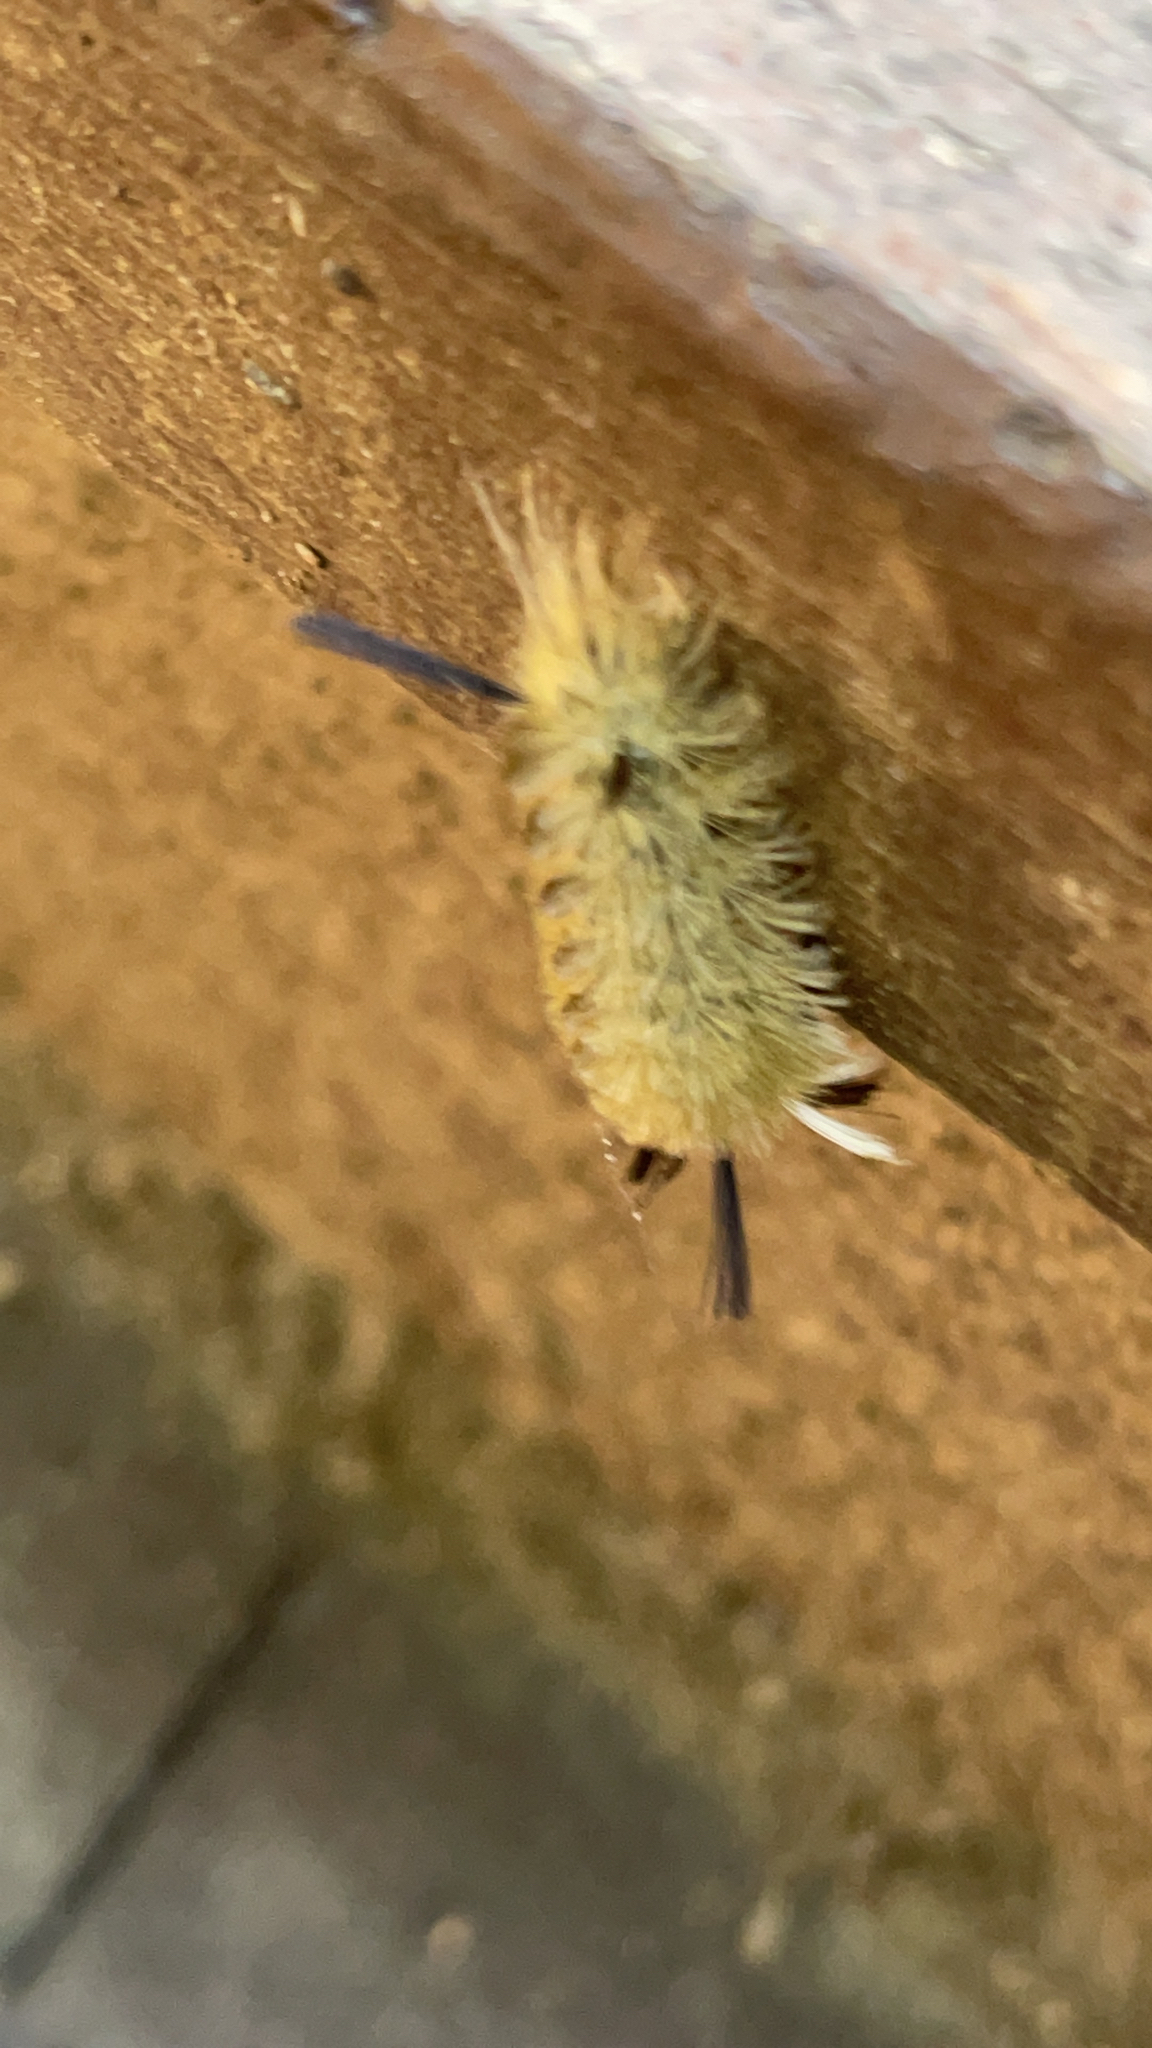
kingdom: Animalia
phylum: Arthropoda
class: Insecta
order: Lepidoptera
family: Erebidae
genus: Halysidota
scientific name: Halysidota tessellaris
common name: Banded tussock moth
